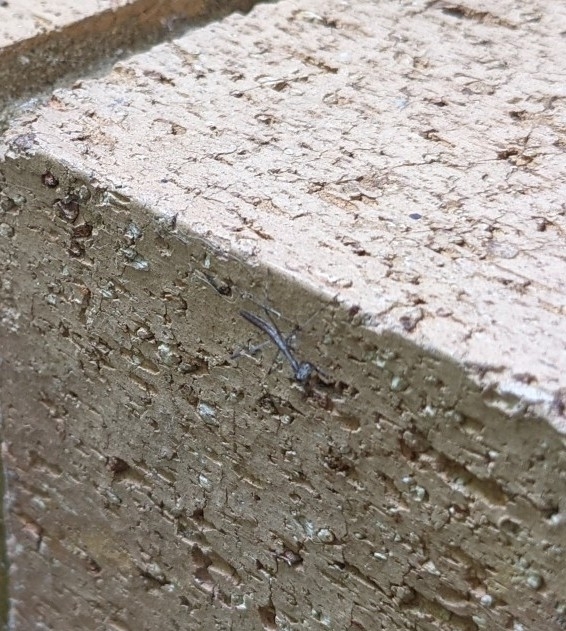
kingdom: Animalia
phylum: Arthropoda
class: Insecta
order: Mantodea
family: Mantidae
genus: Archimantis
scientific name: Archimantis latistyla
